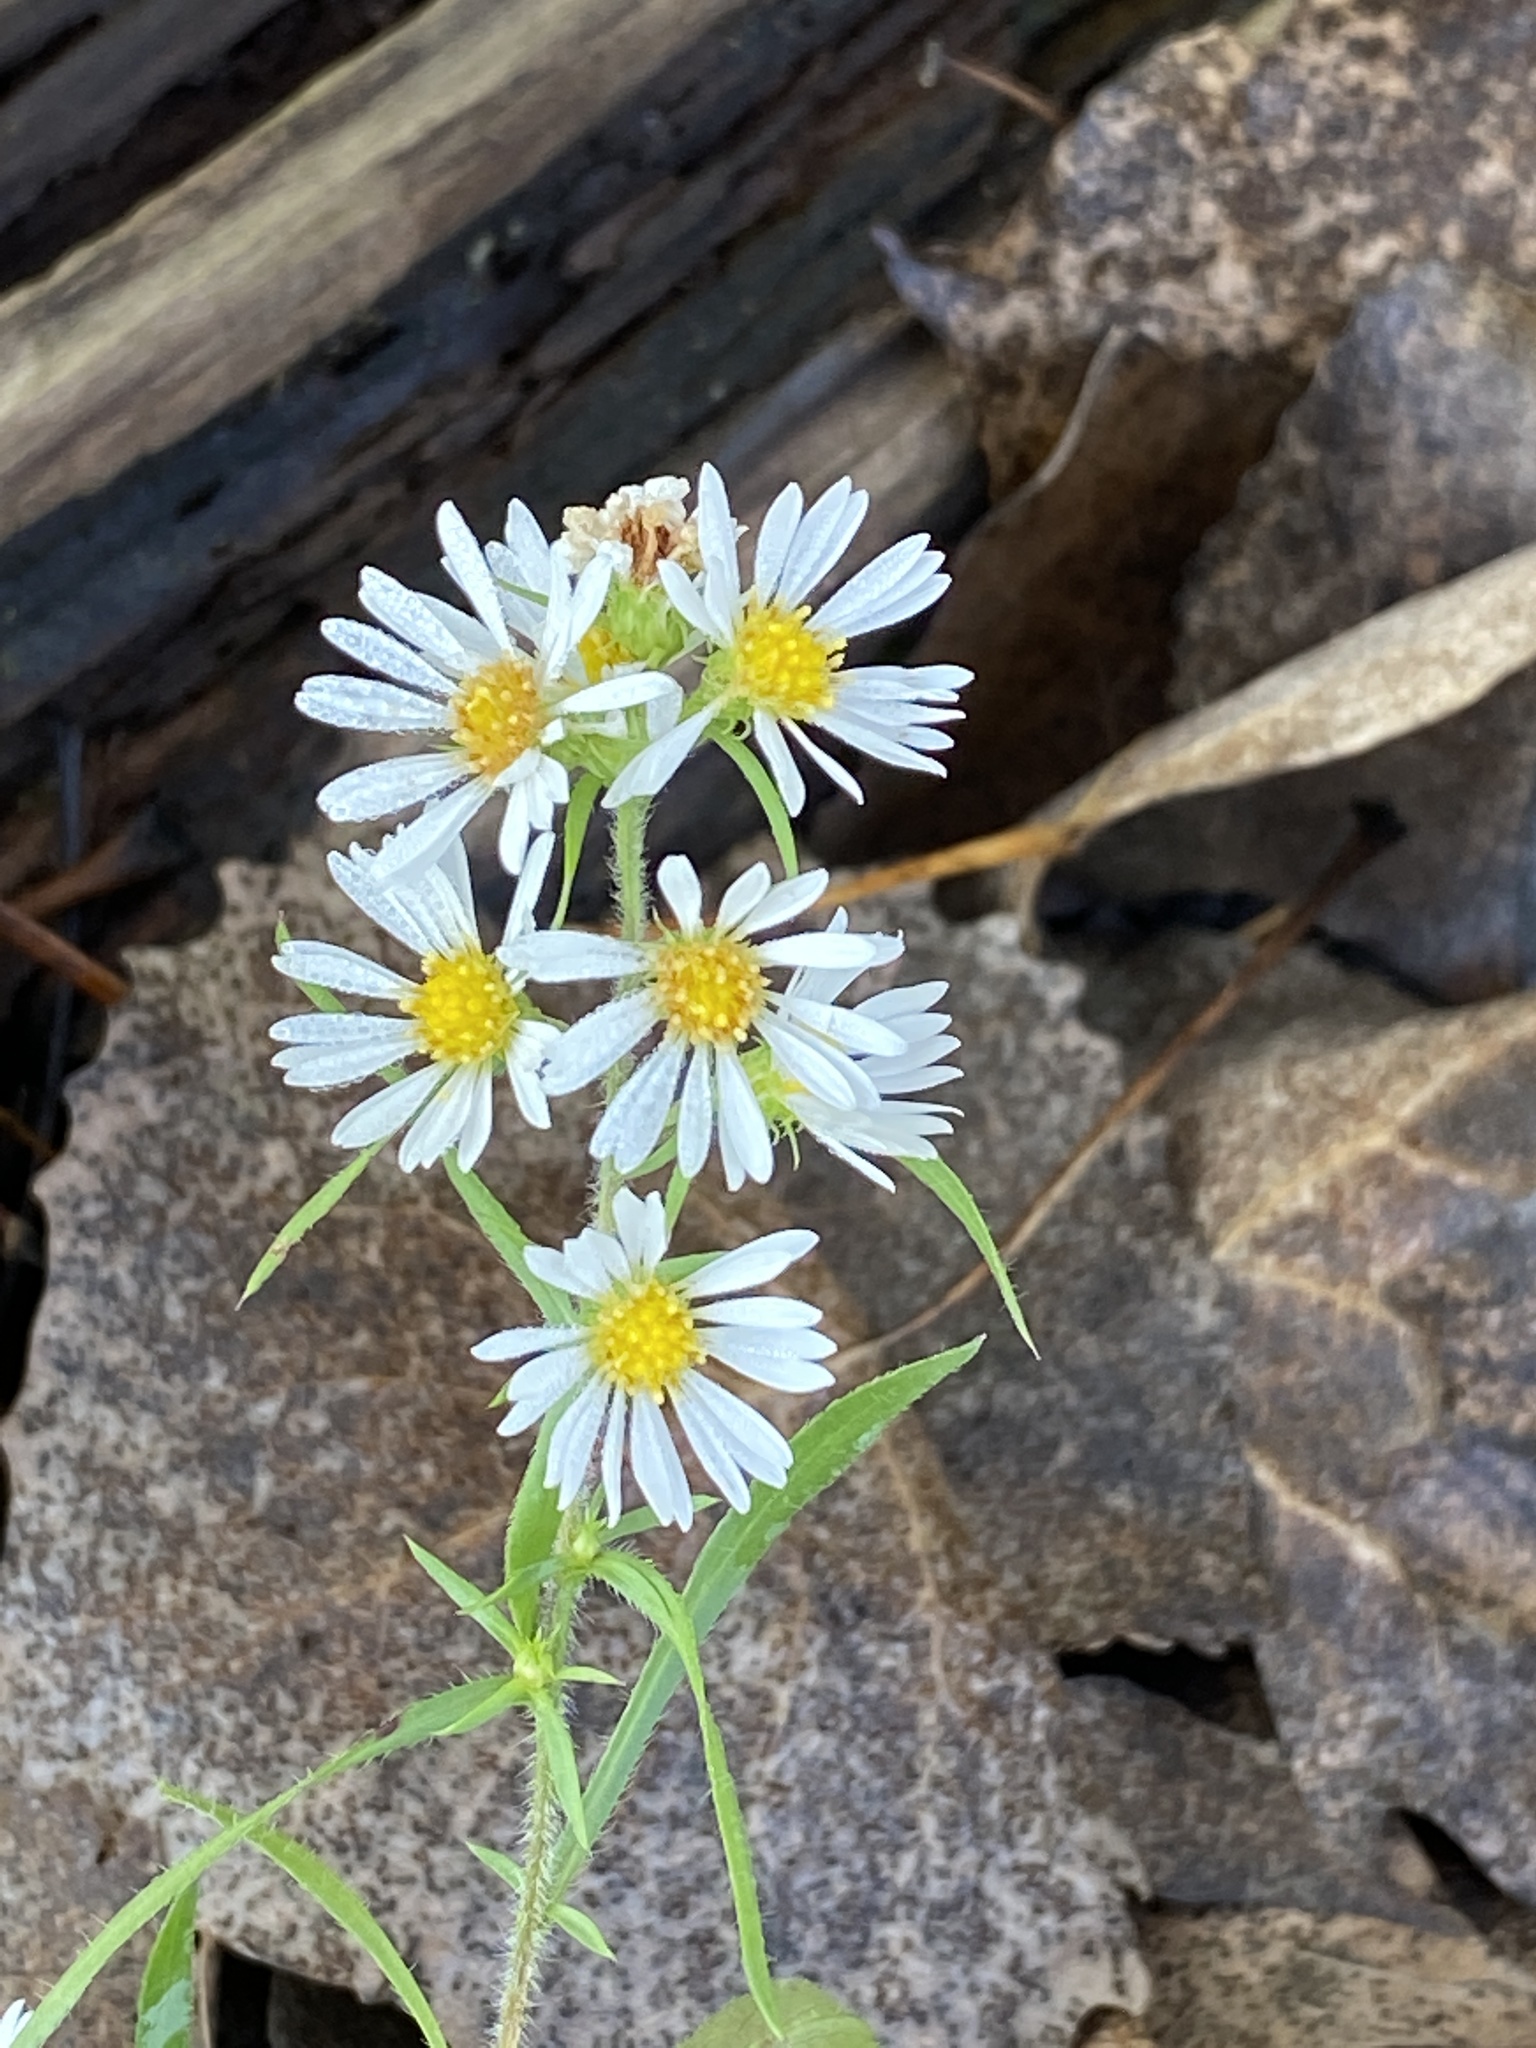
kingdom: Plantae
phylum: Tracheophyta
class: Magnoliopsida
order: Asterales
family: Asteraceae
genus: Symphyotrichum
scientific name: Symphyotrichum pilosum
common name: Awl aster
